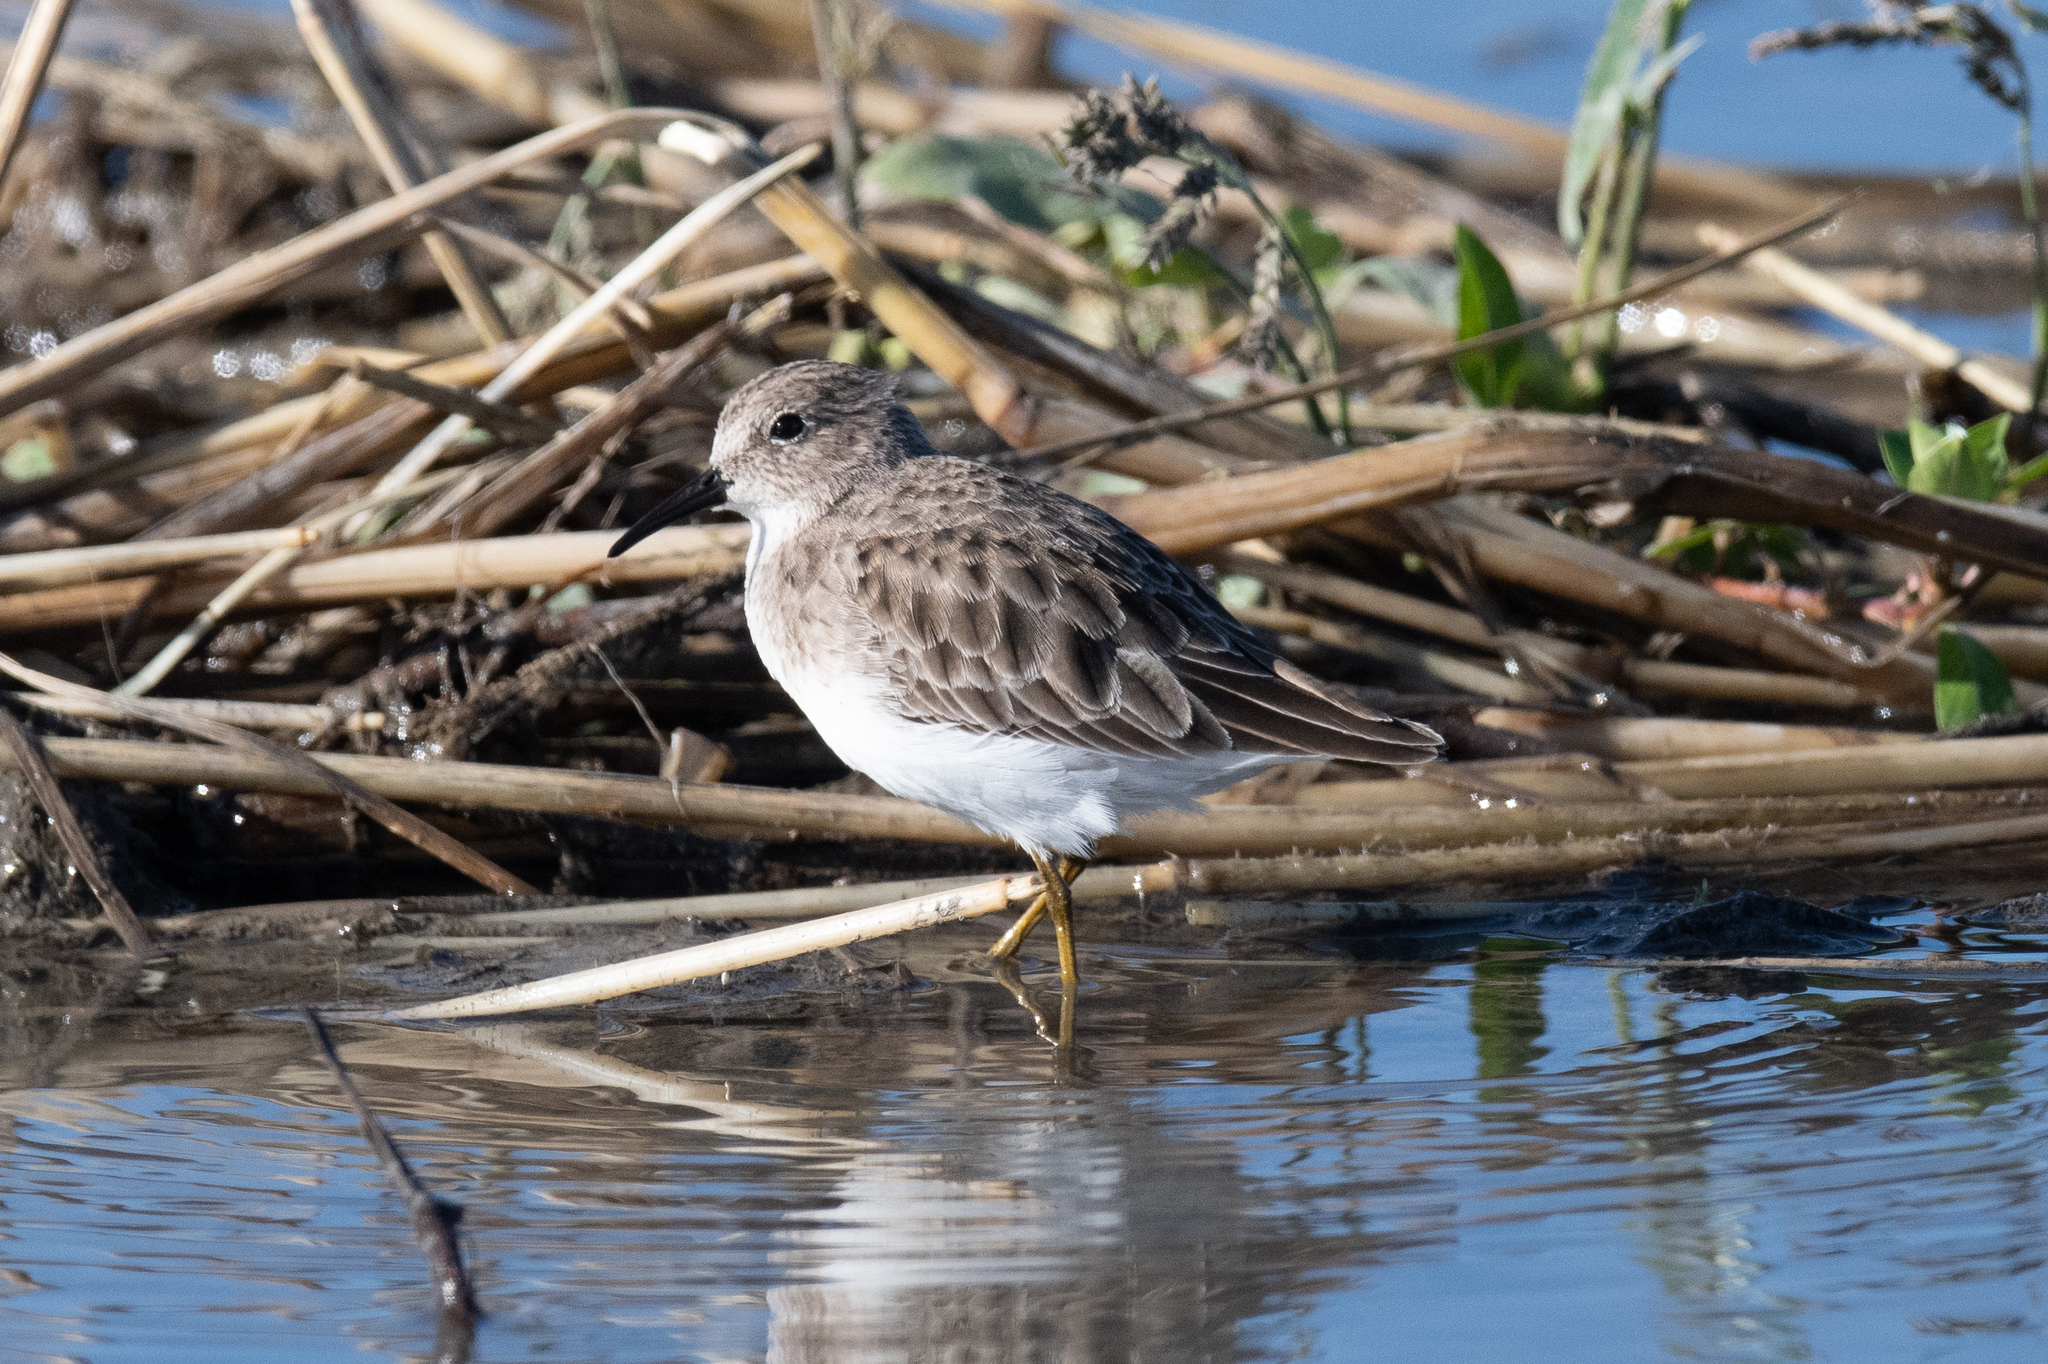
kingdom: Animalia
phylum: Chordata
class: Aves
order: Charadriiformes
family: Scolopacidae
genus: Calidris
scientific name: Calidris minutilla
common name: Least sandpiper
